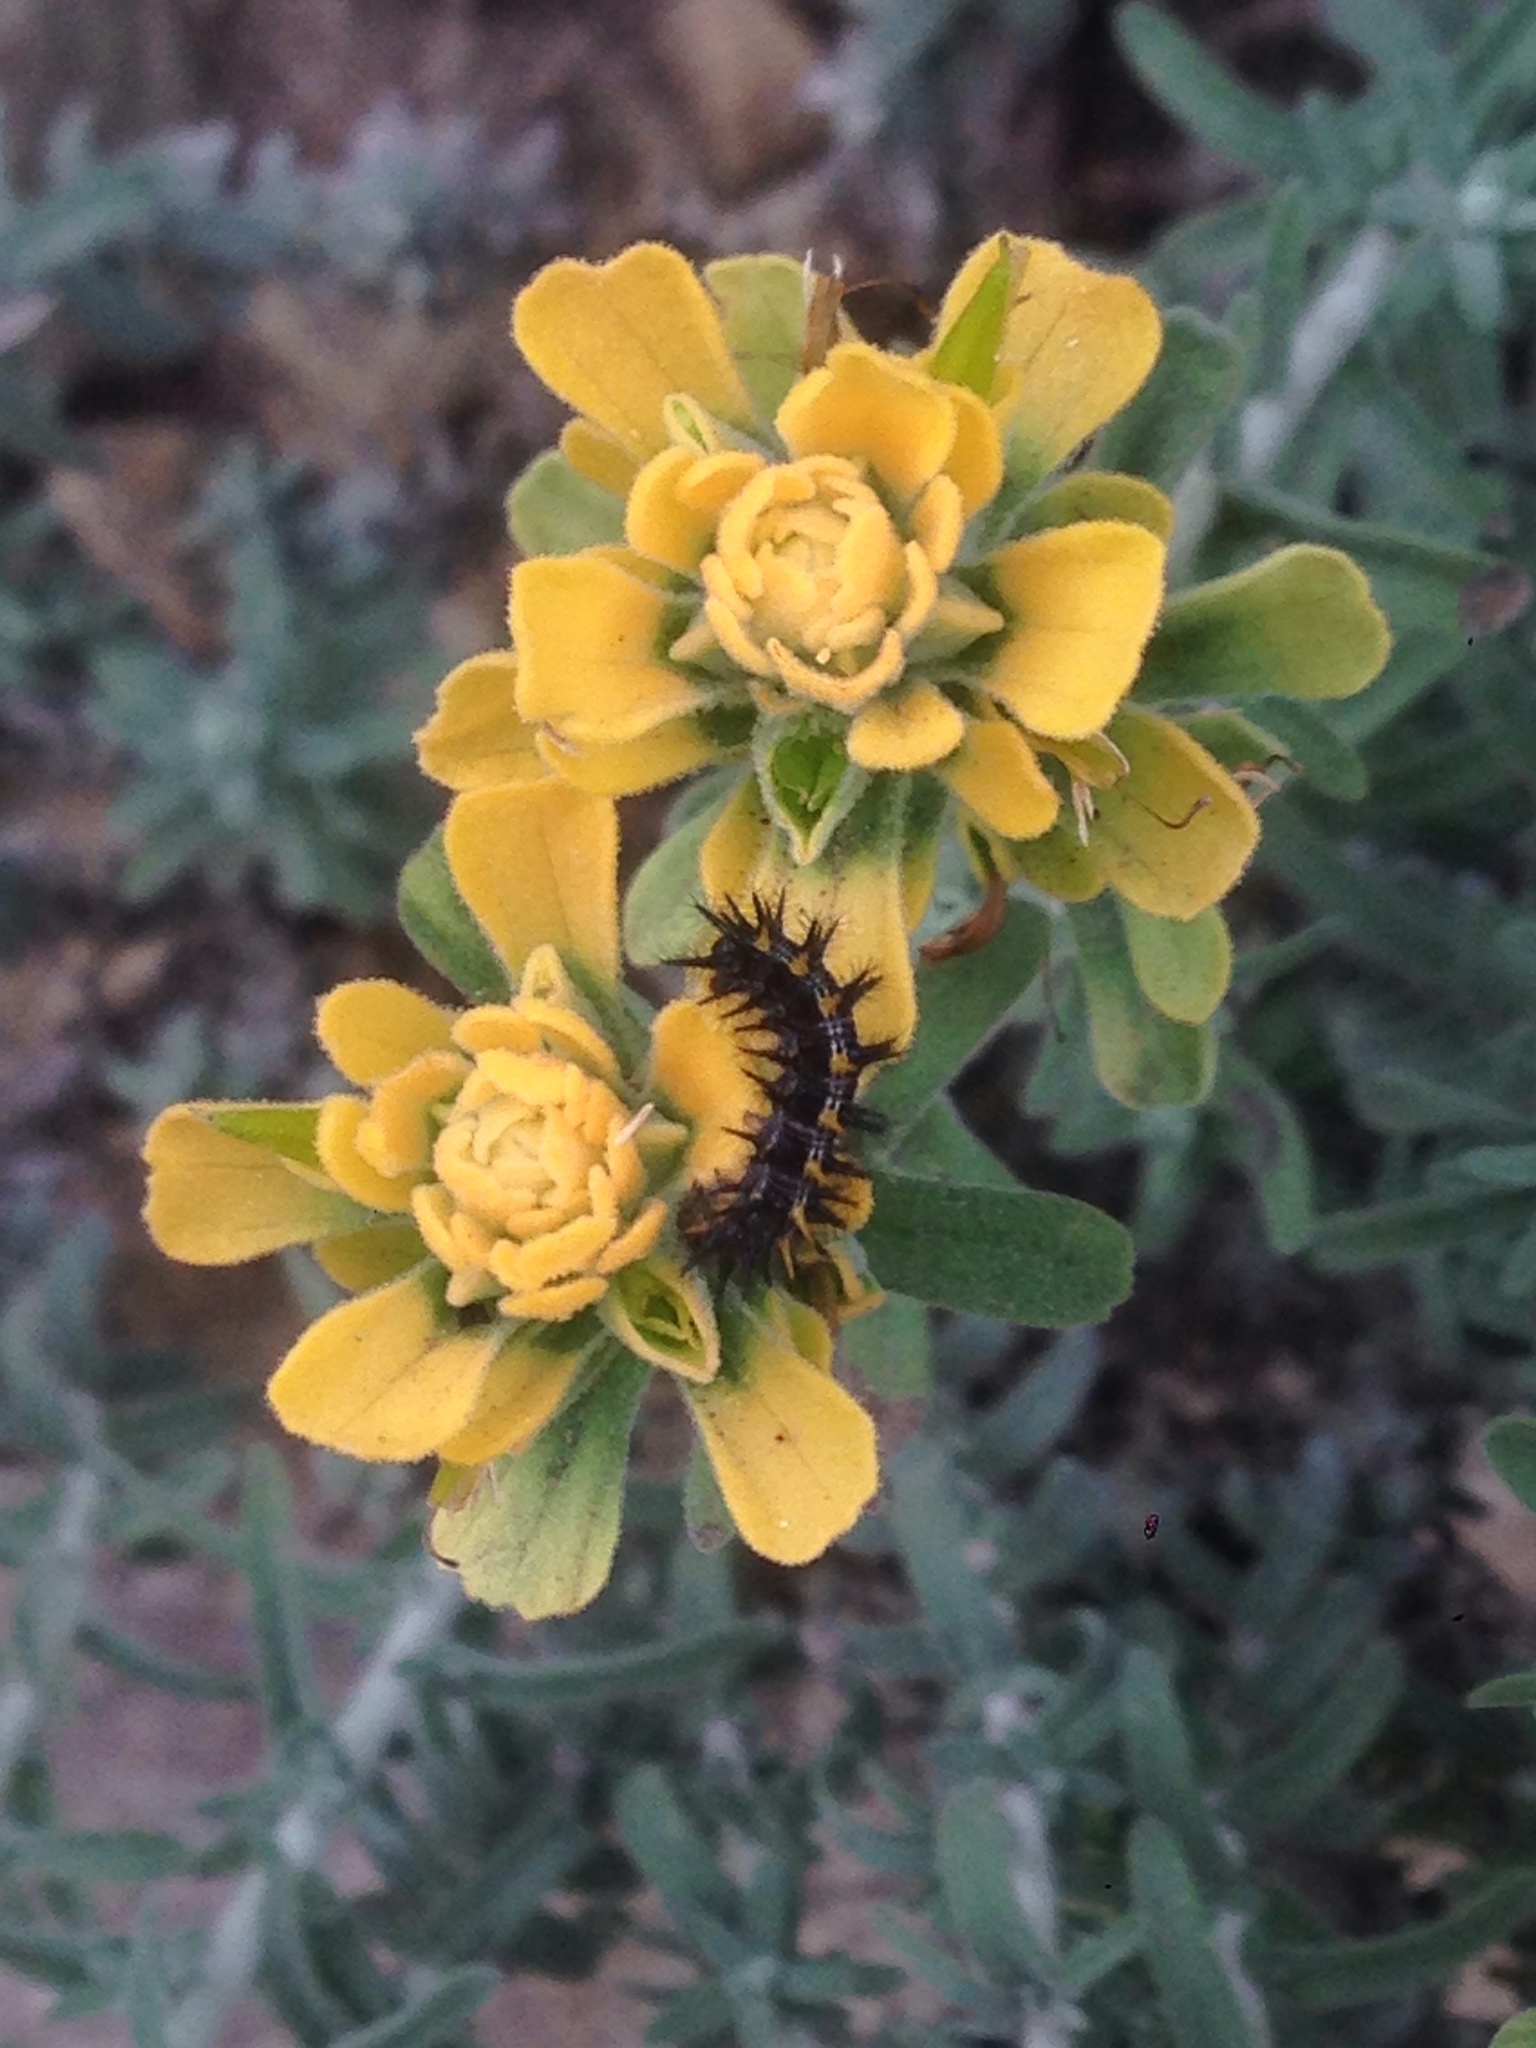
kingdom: Plantae
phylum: Tracheophyta
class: Magnoliopsida
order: Lamiales
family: Orobanchaceae
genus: Castilleja
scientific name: Castilleja foliolosa
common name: Woolly indian paintbrush
